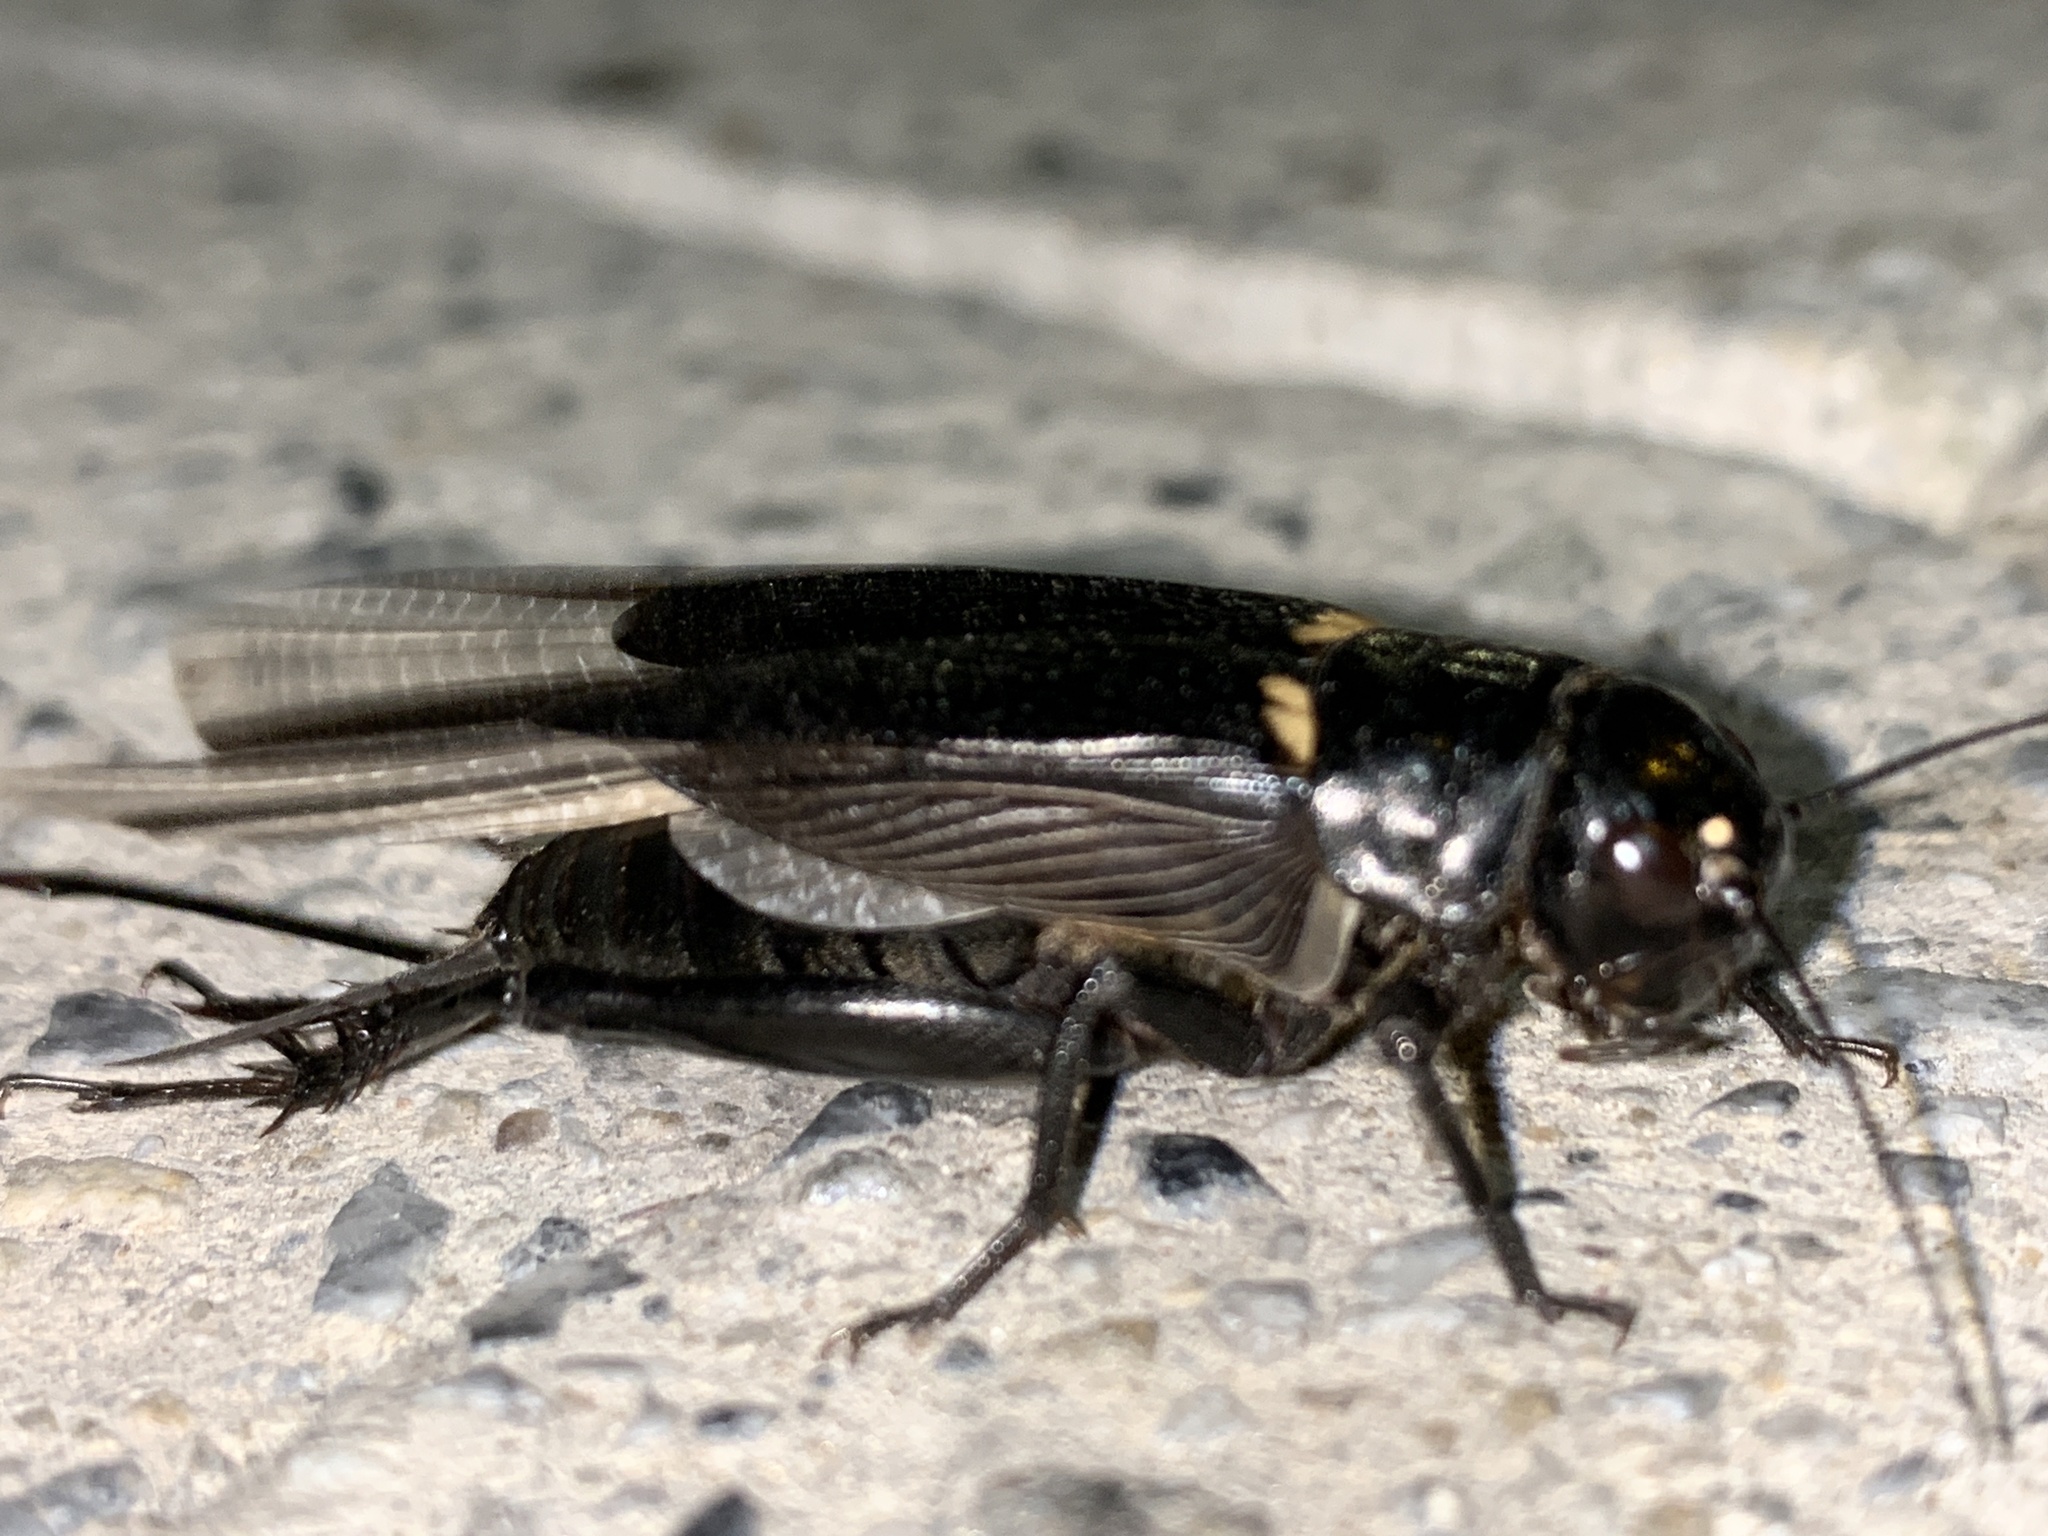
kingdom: Animalia
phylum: Arthropoda
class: Insecta
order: Orthoptera
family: Gryllidae
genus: Gryllus
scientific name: Gryllus bimaculatus
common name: Two-spotted cricket
